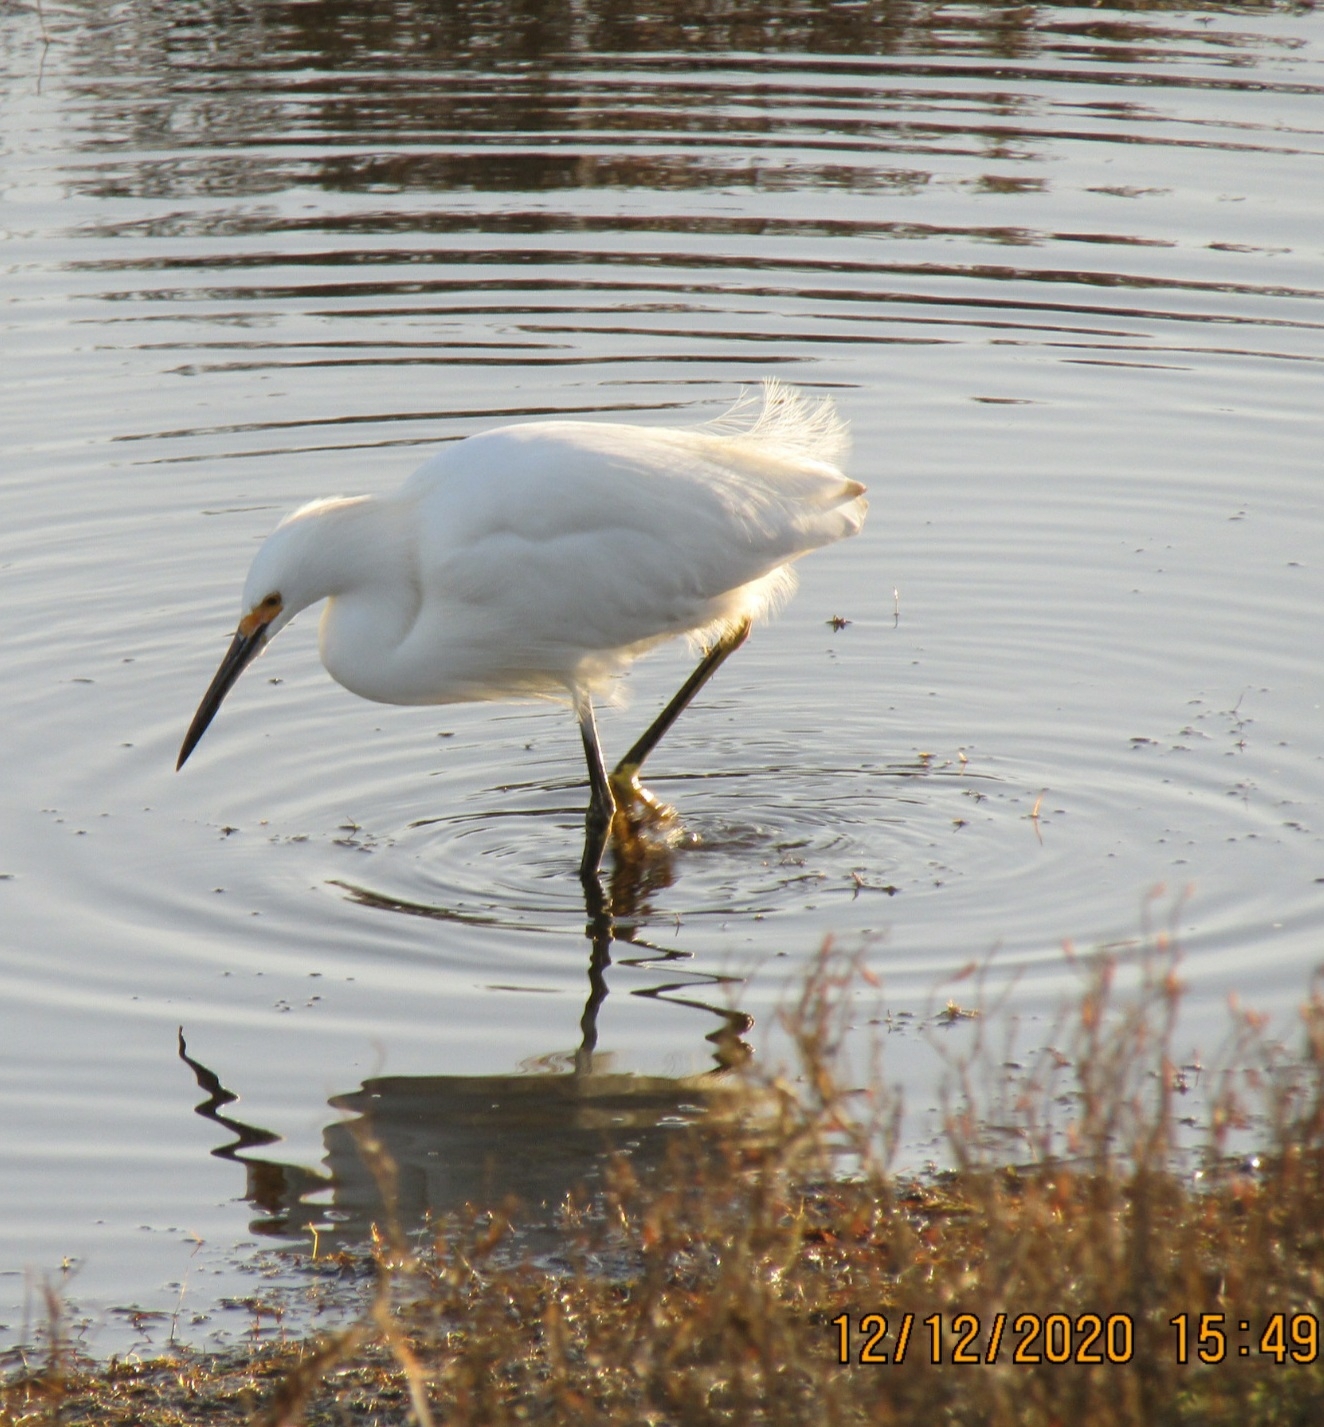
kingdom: Animalia
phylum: Chordata
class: Aves
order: Pelecaniformes
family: Ardeidae
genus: Egretta
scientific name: Egretta thula
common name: Snowy egret
